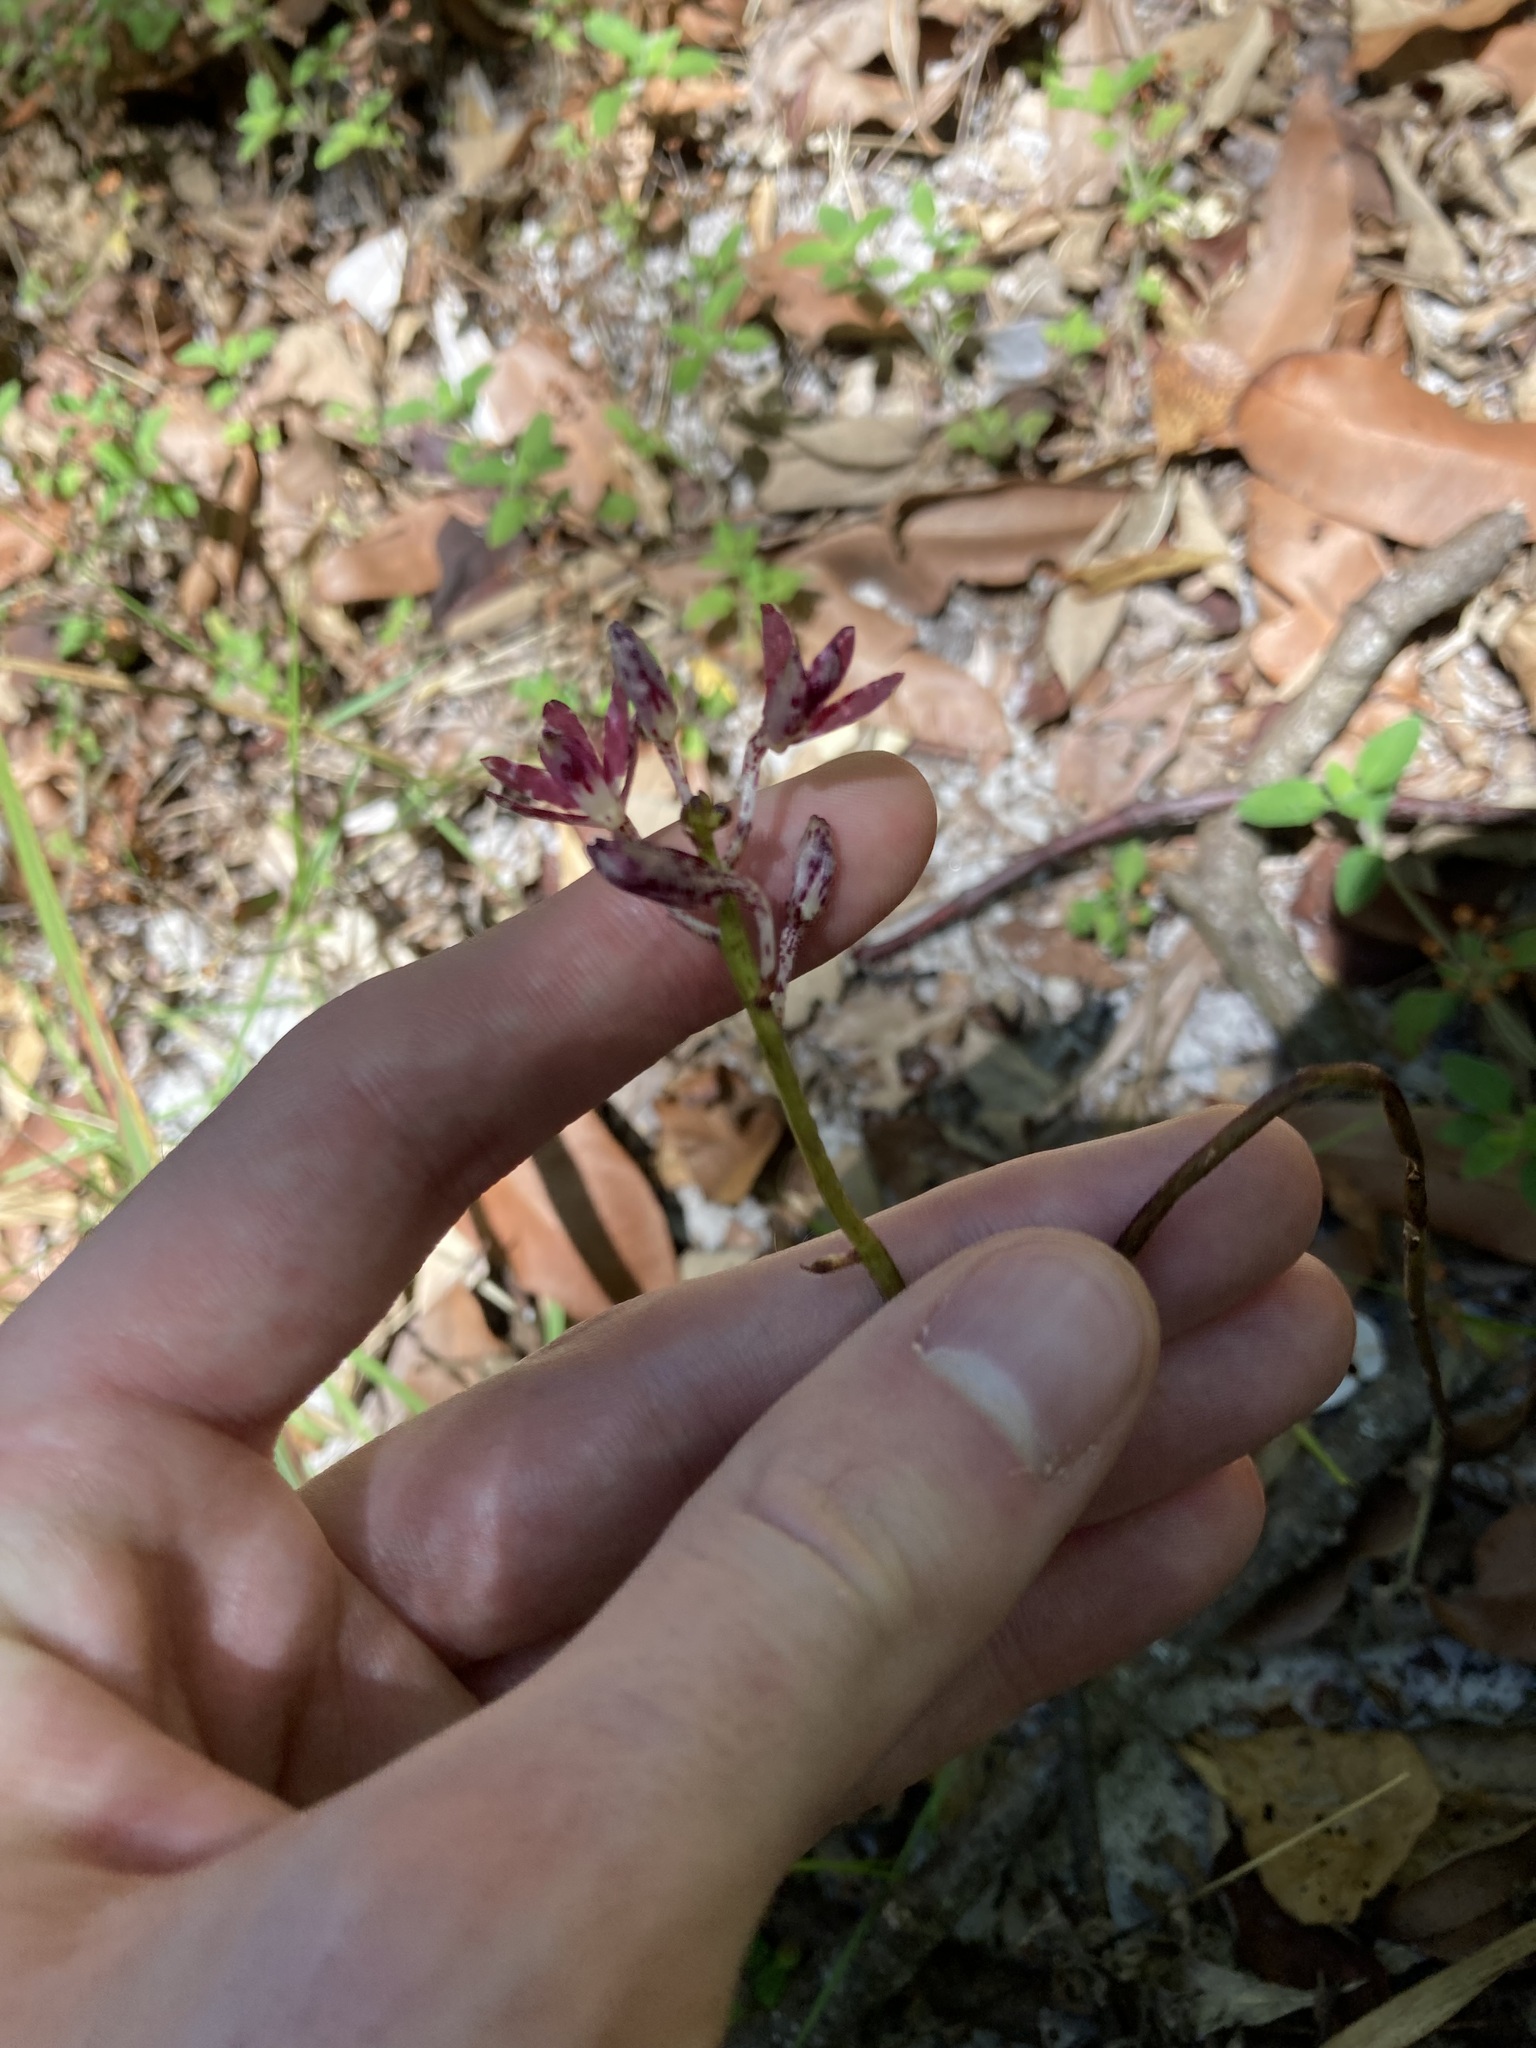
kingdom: Plantae
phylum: Tracheophyta
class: Liliopsida
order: Asparagales
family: Orchidaceae
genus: Dipodium
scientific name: Dipodium variegatum
